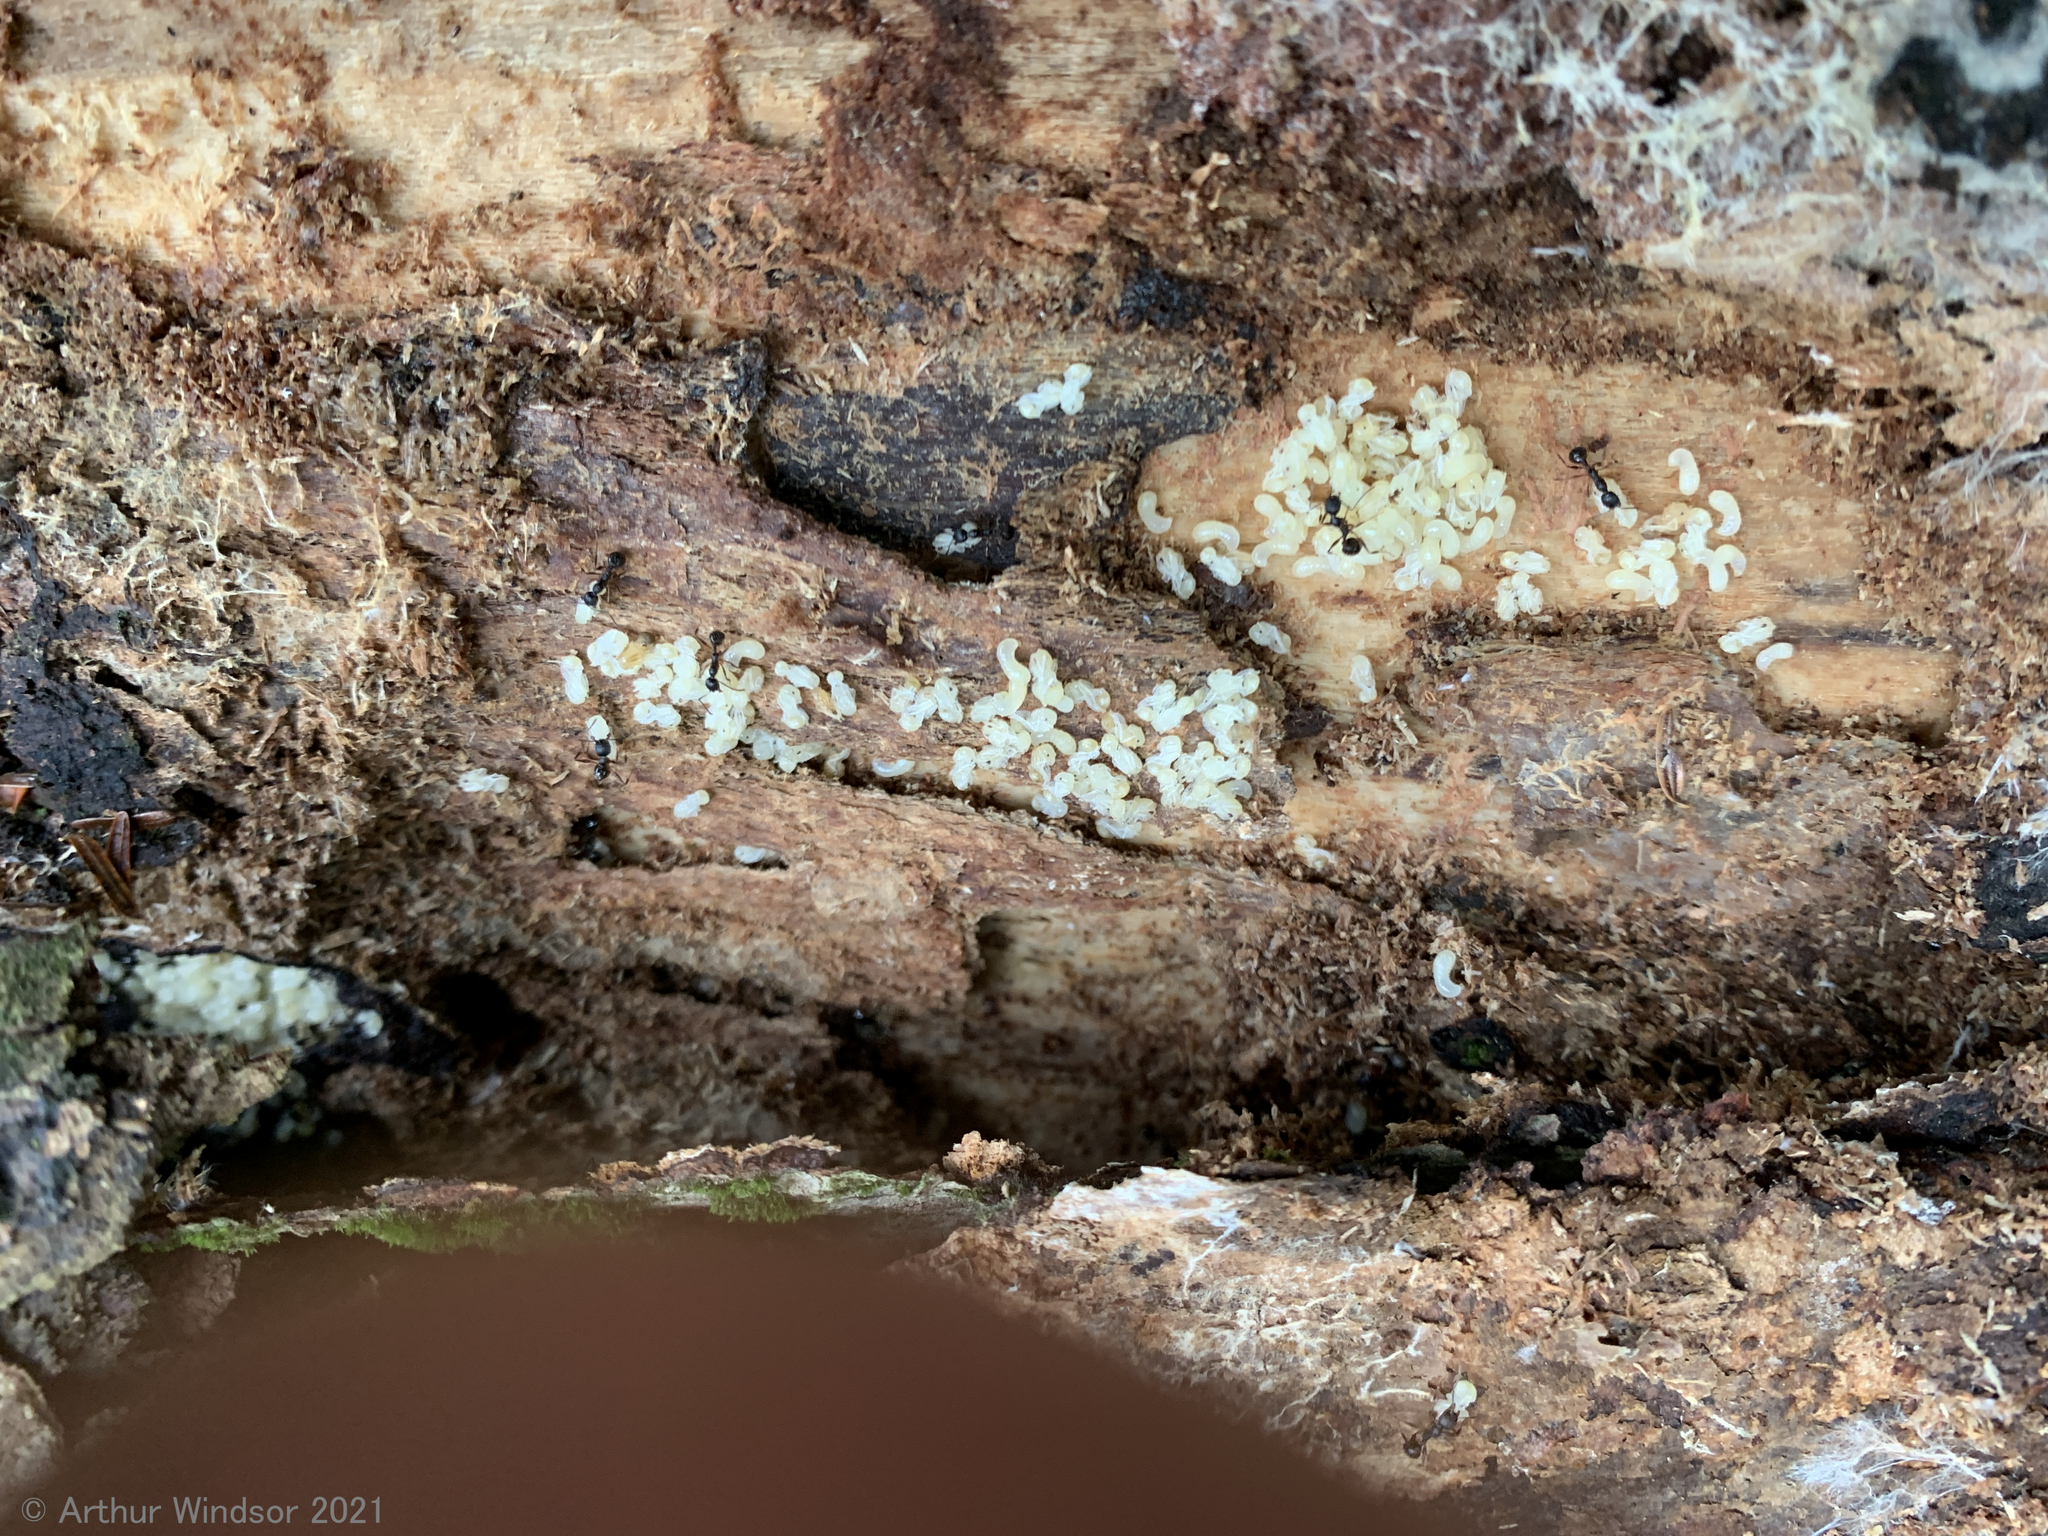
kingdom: Animalia
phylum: Arthropoda
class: Insecta
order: Hymenoptera
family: Formicidae
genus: Aphaenogaster
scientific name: Aphaenogaster picea
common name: Pitch-black collared ant
